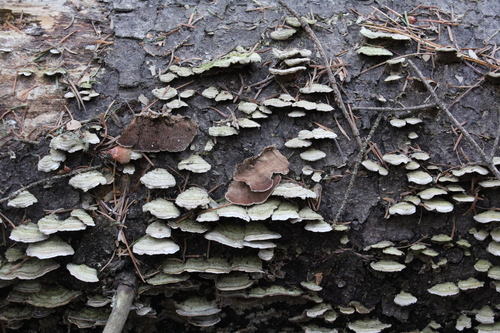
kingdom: Fungi
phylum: Basidiomycota
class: Agaricomycetes
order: Hymenochaetales
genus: Trichaptum
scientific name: Trichaptum fuscoviolaceum
